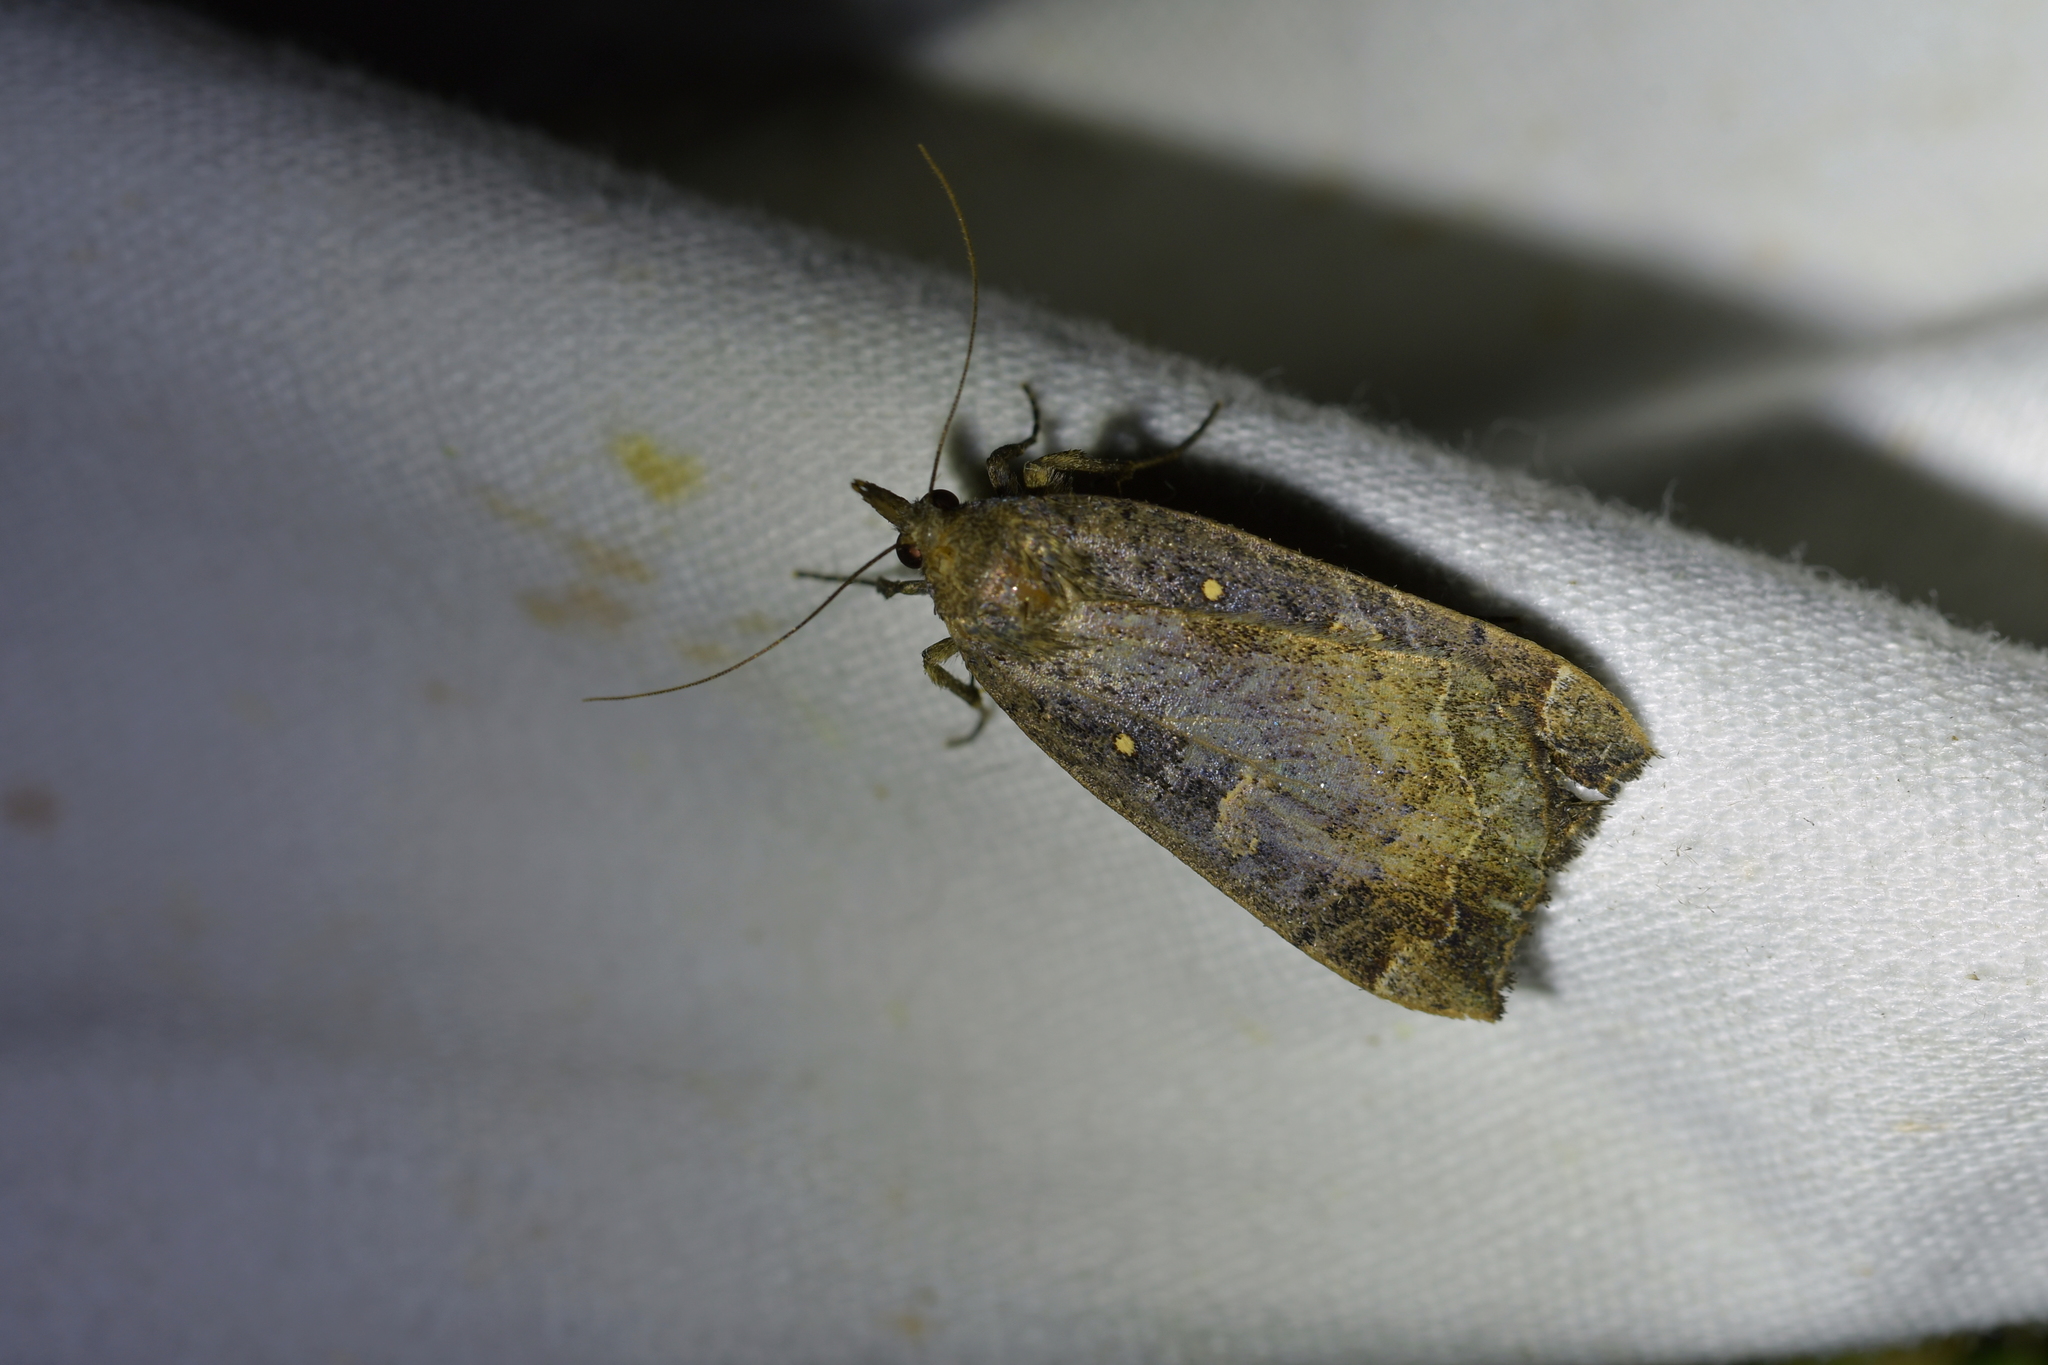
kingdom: Animalia
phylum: Arthropoda
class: Insecta
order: Lepidoptera
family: Erebidae
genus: Rhapsa
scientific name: Rhapsa scotosialis
